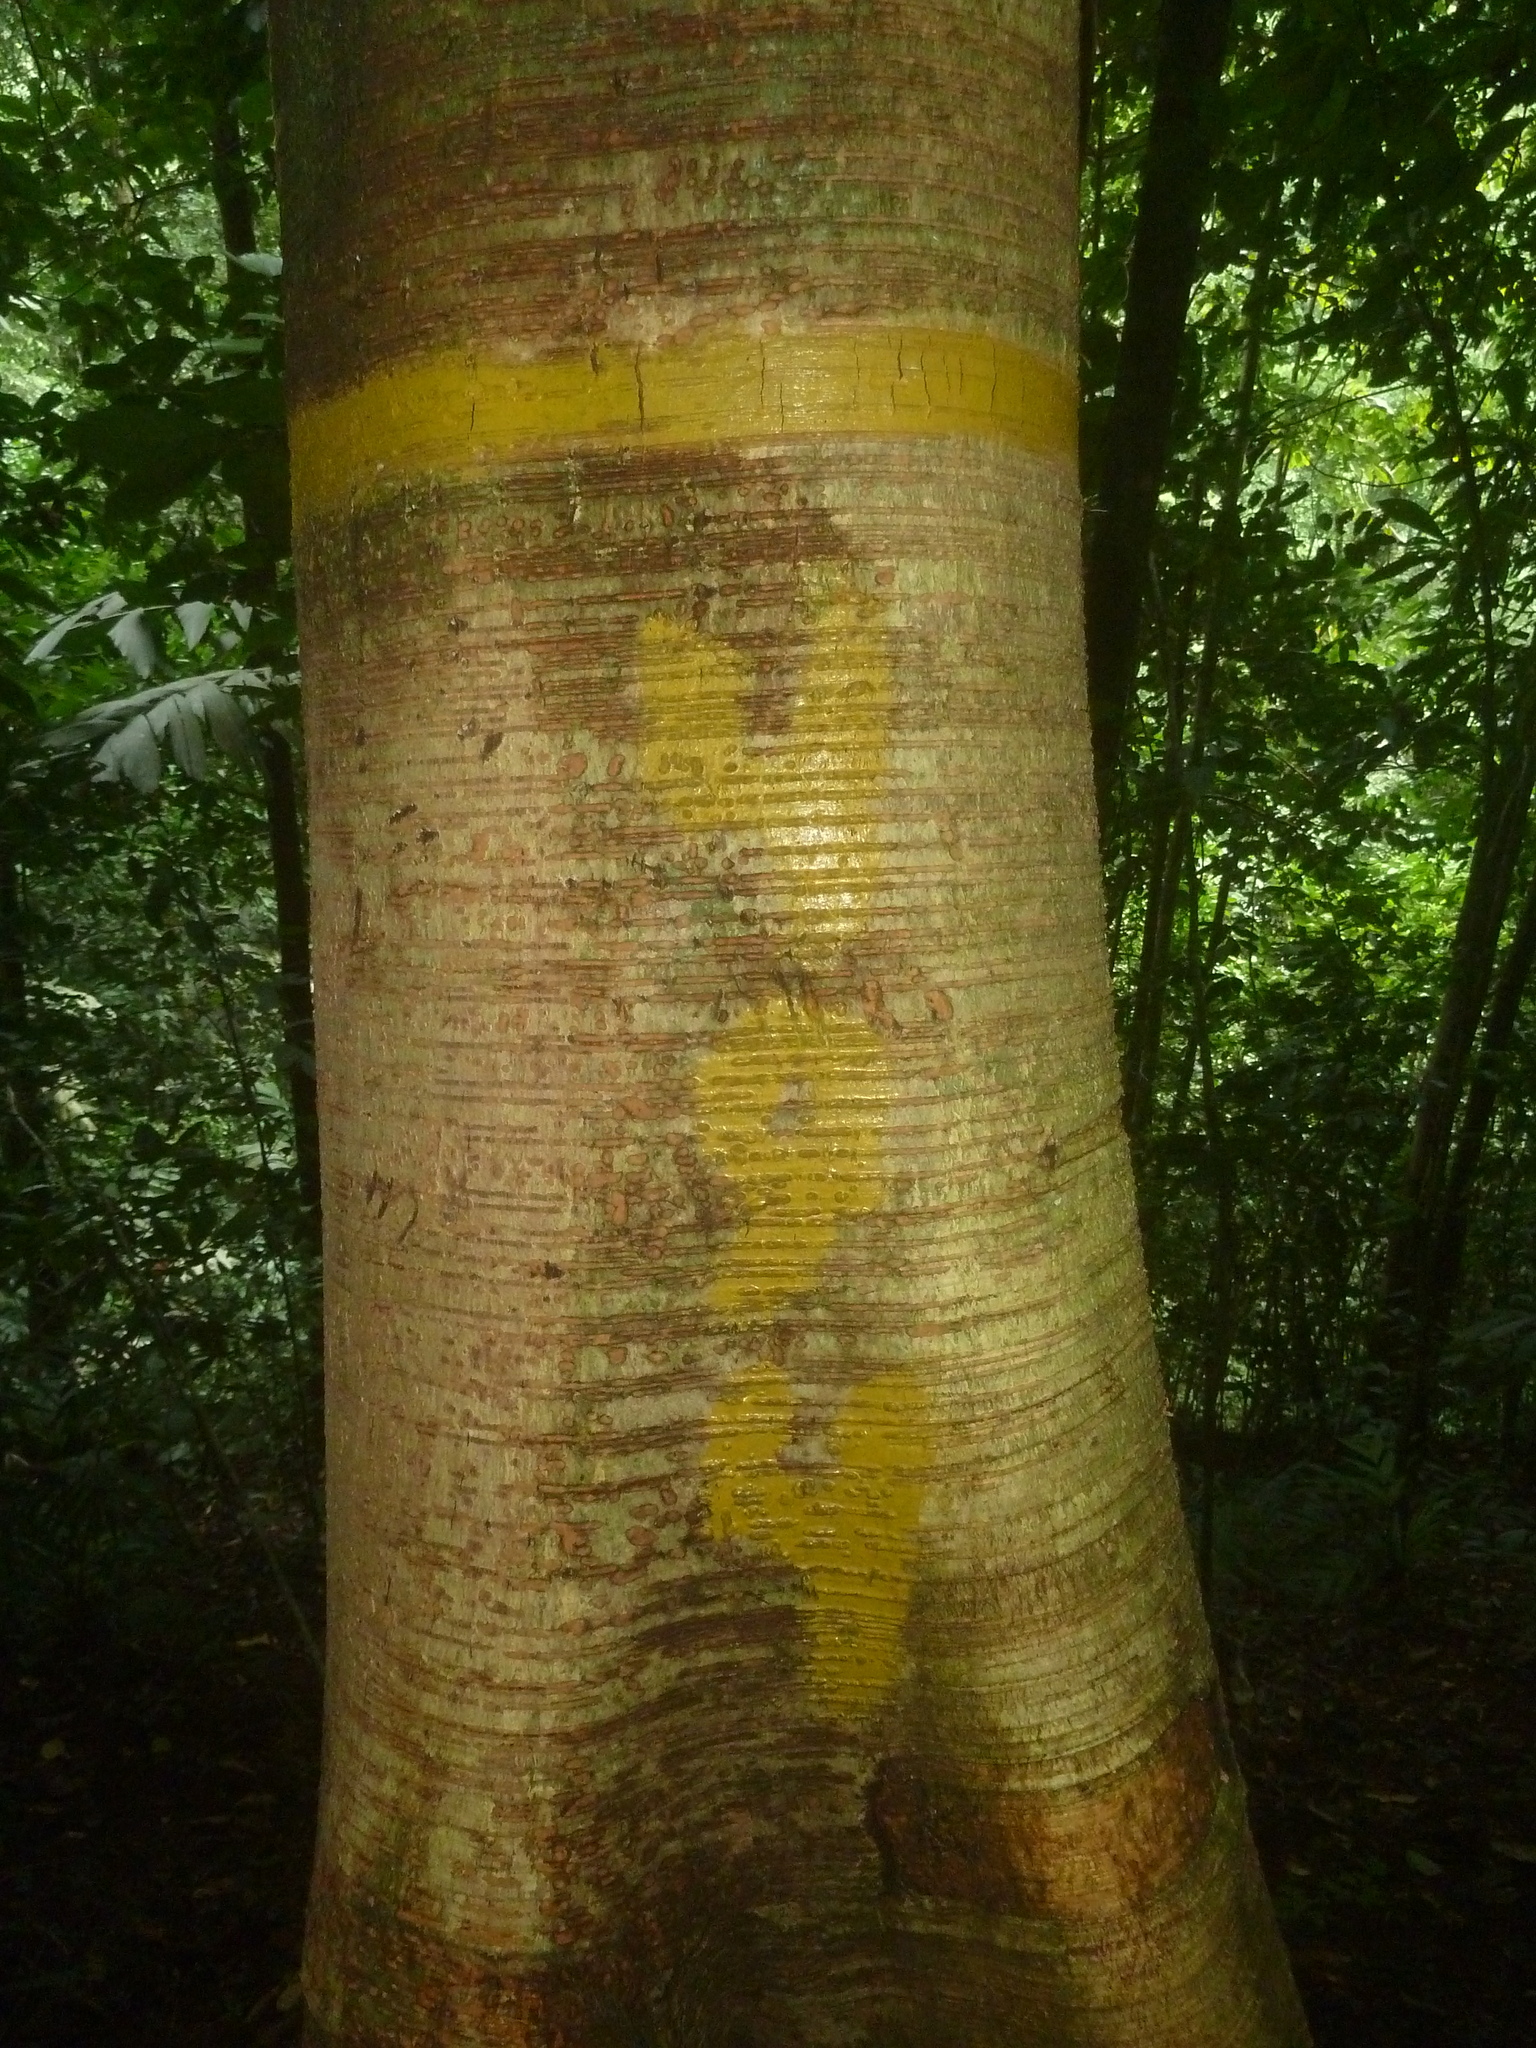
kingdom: Plantae
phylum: Tracheophyta
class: Magnoliopsida
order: Rosales
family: Moraceae
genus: Brosimum
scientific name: Brosimum costaricanum
